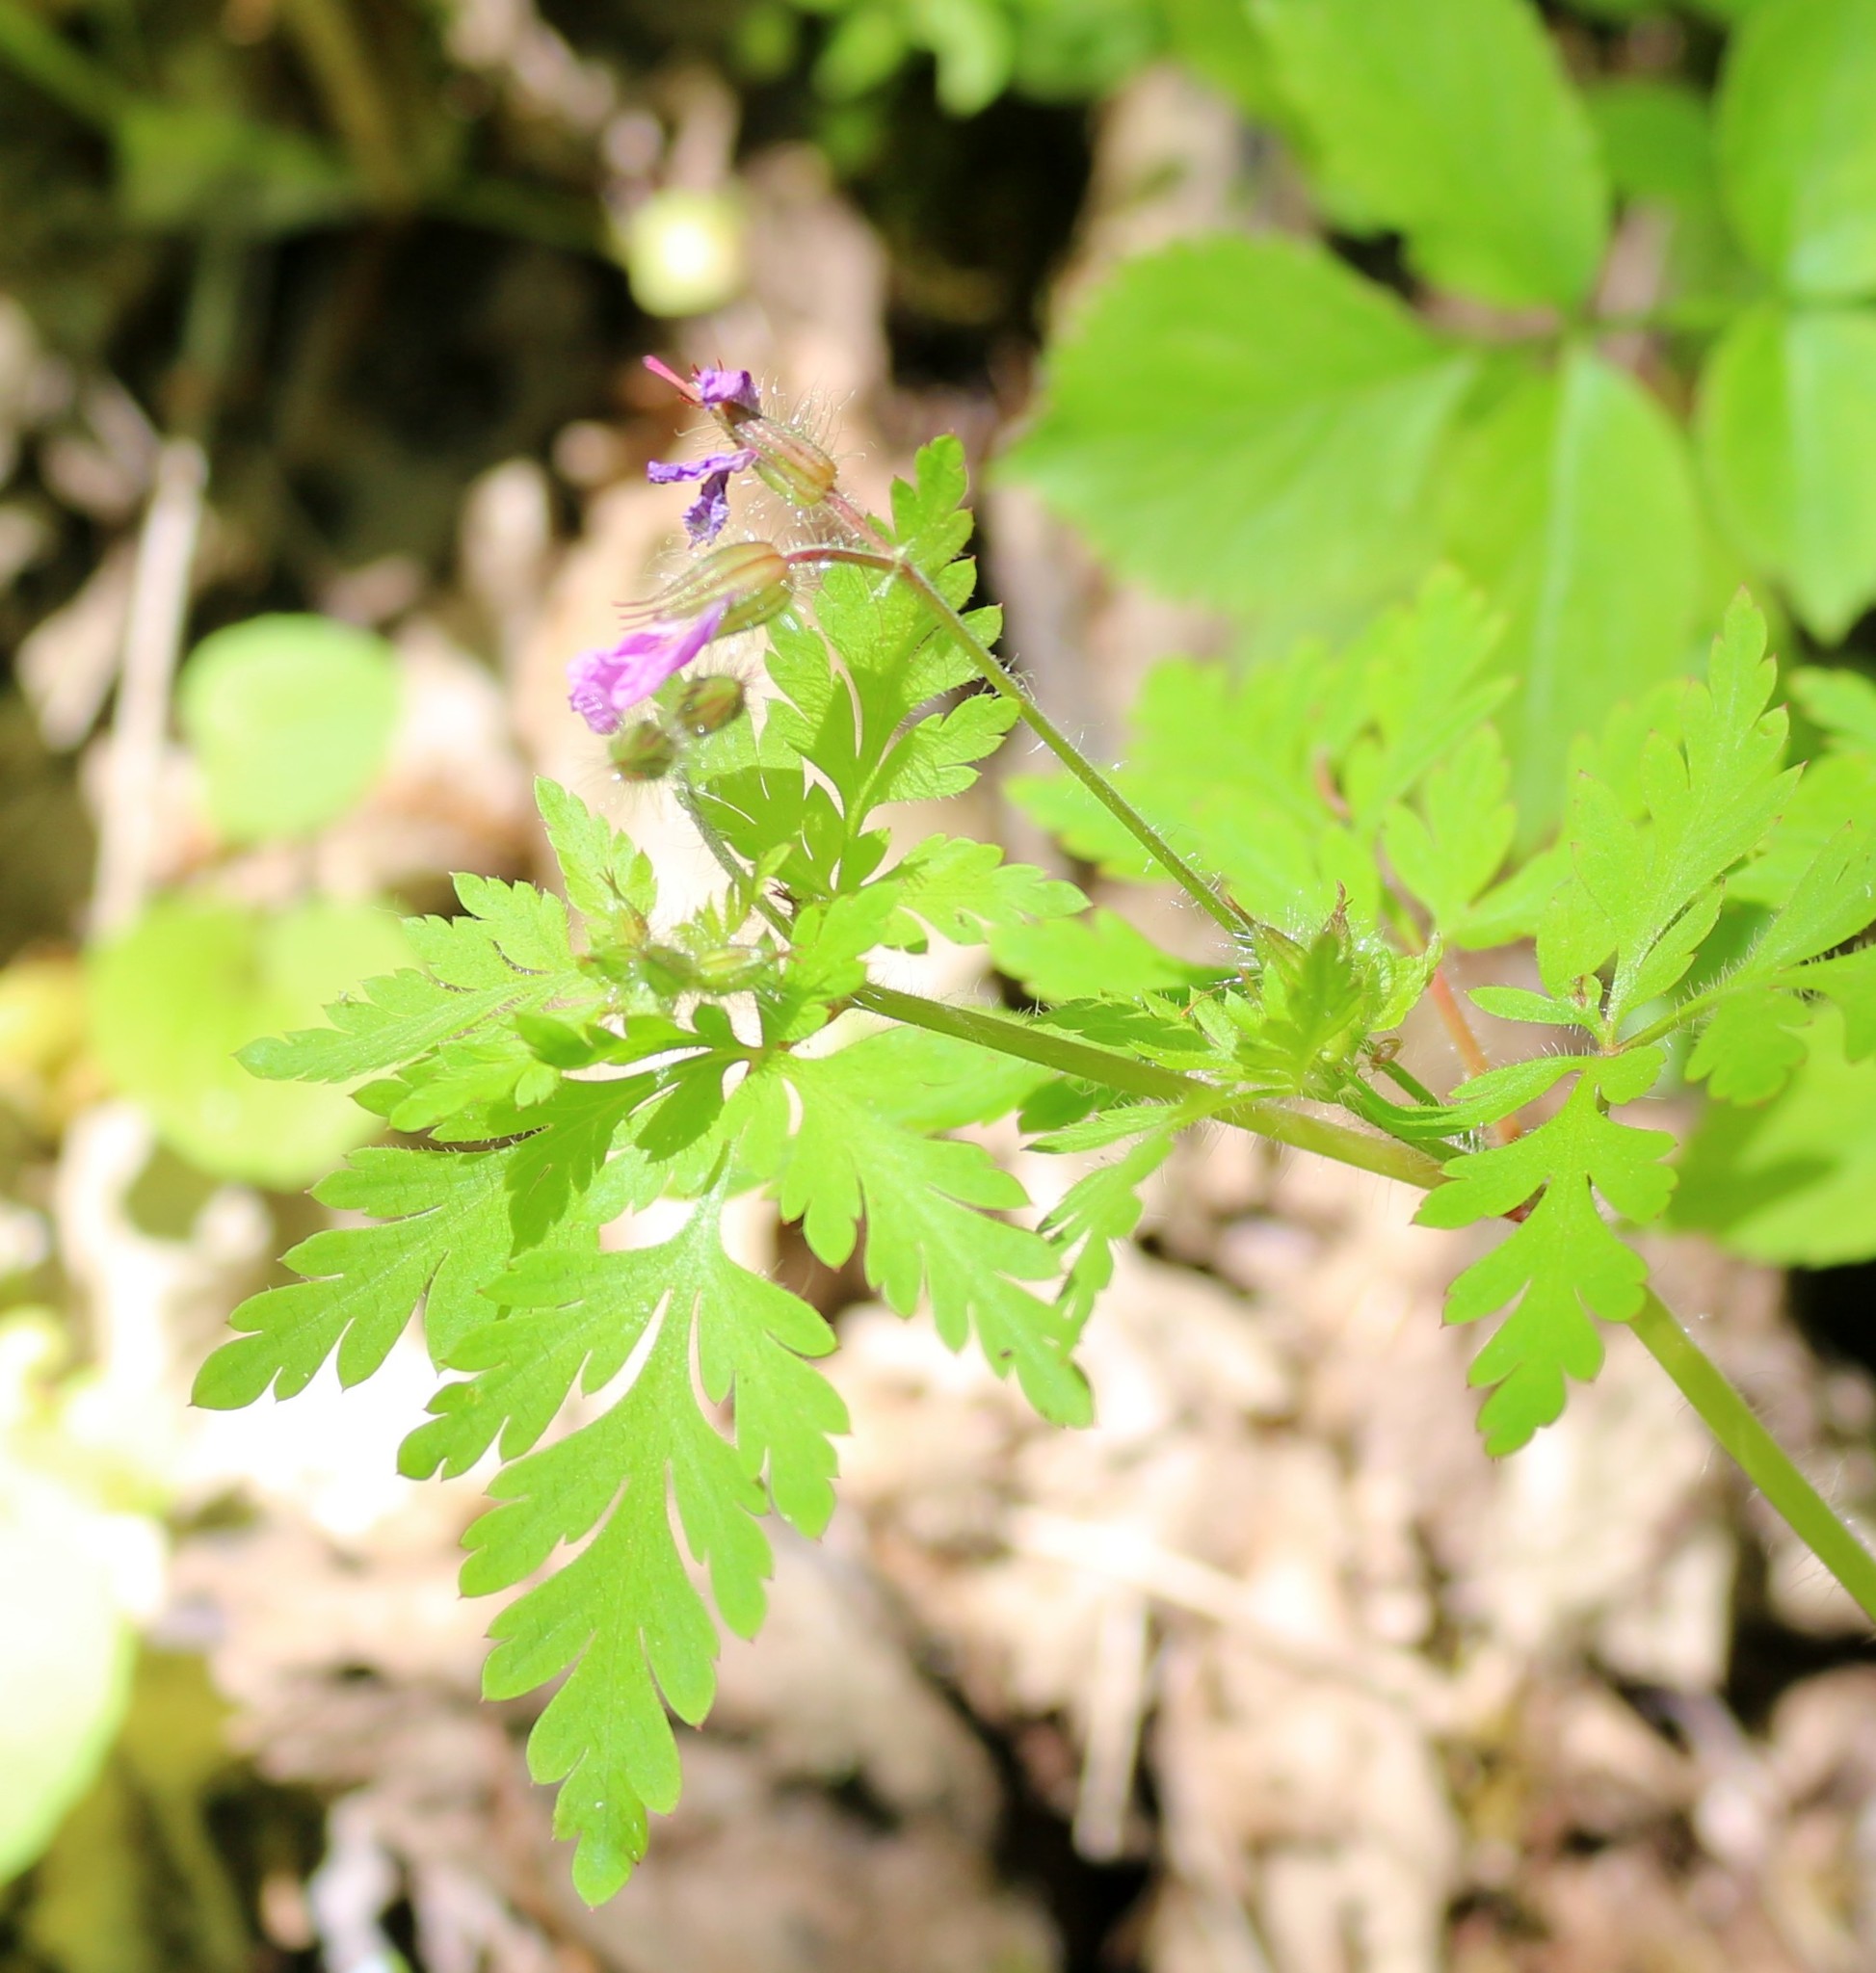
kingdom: Plantae
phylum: Tracheophyta
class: Magnoliopsida
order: Geraniales
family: Geraniaceae
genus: Geranium
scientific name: Geranium robertianum
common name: Herb-robert
